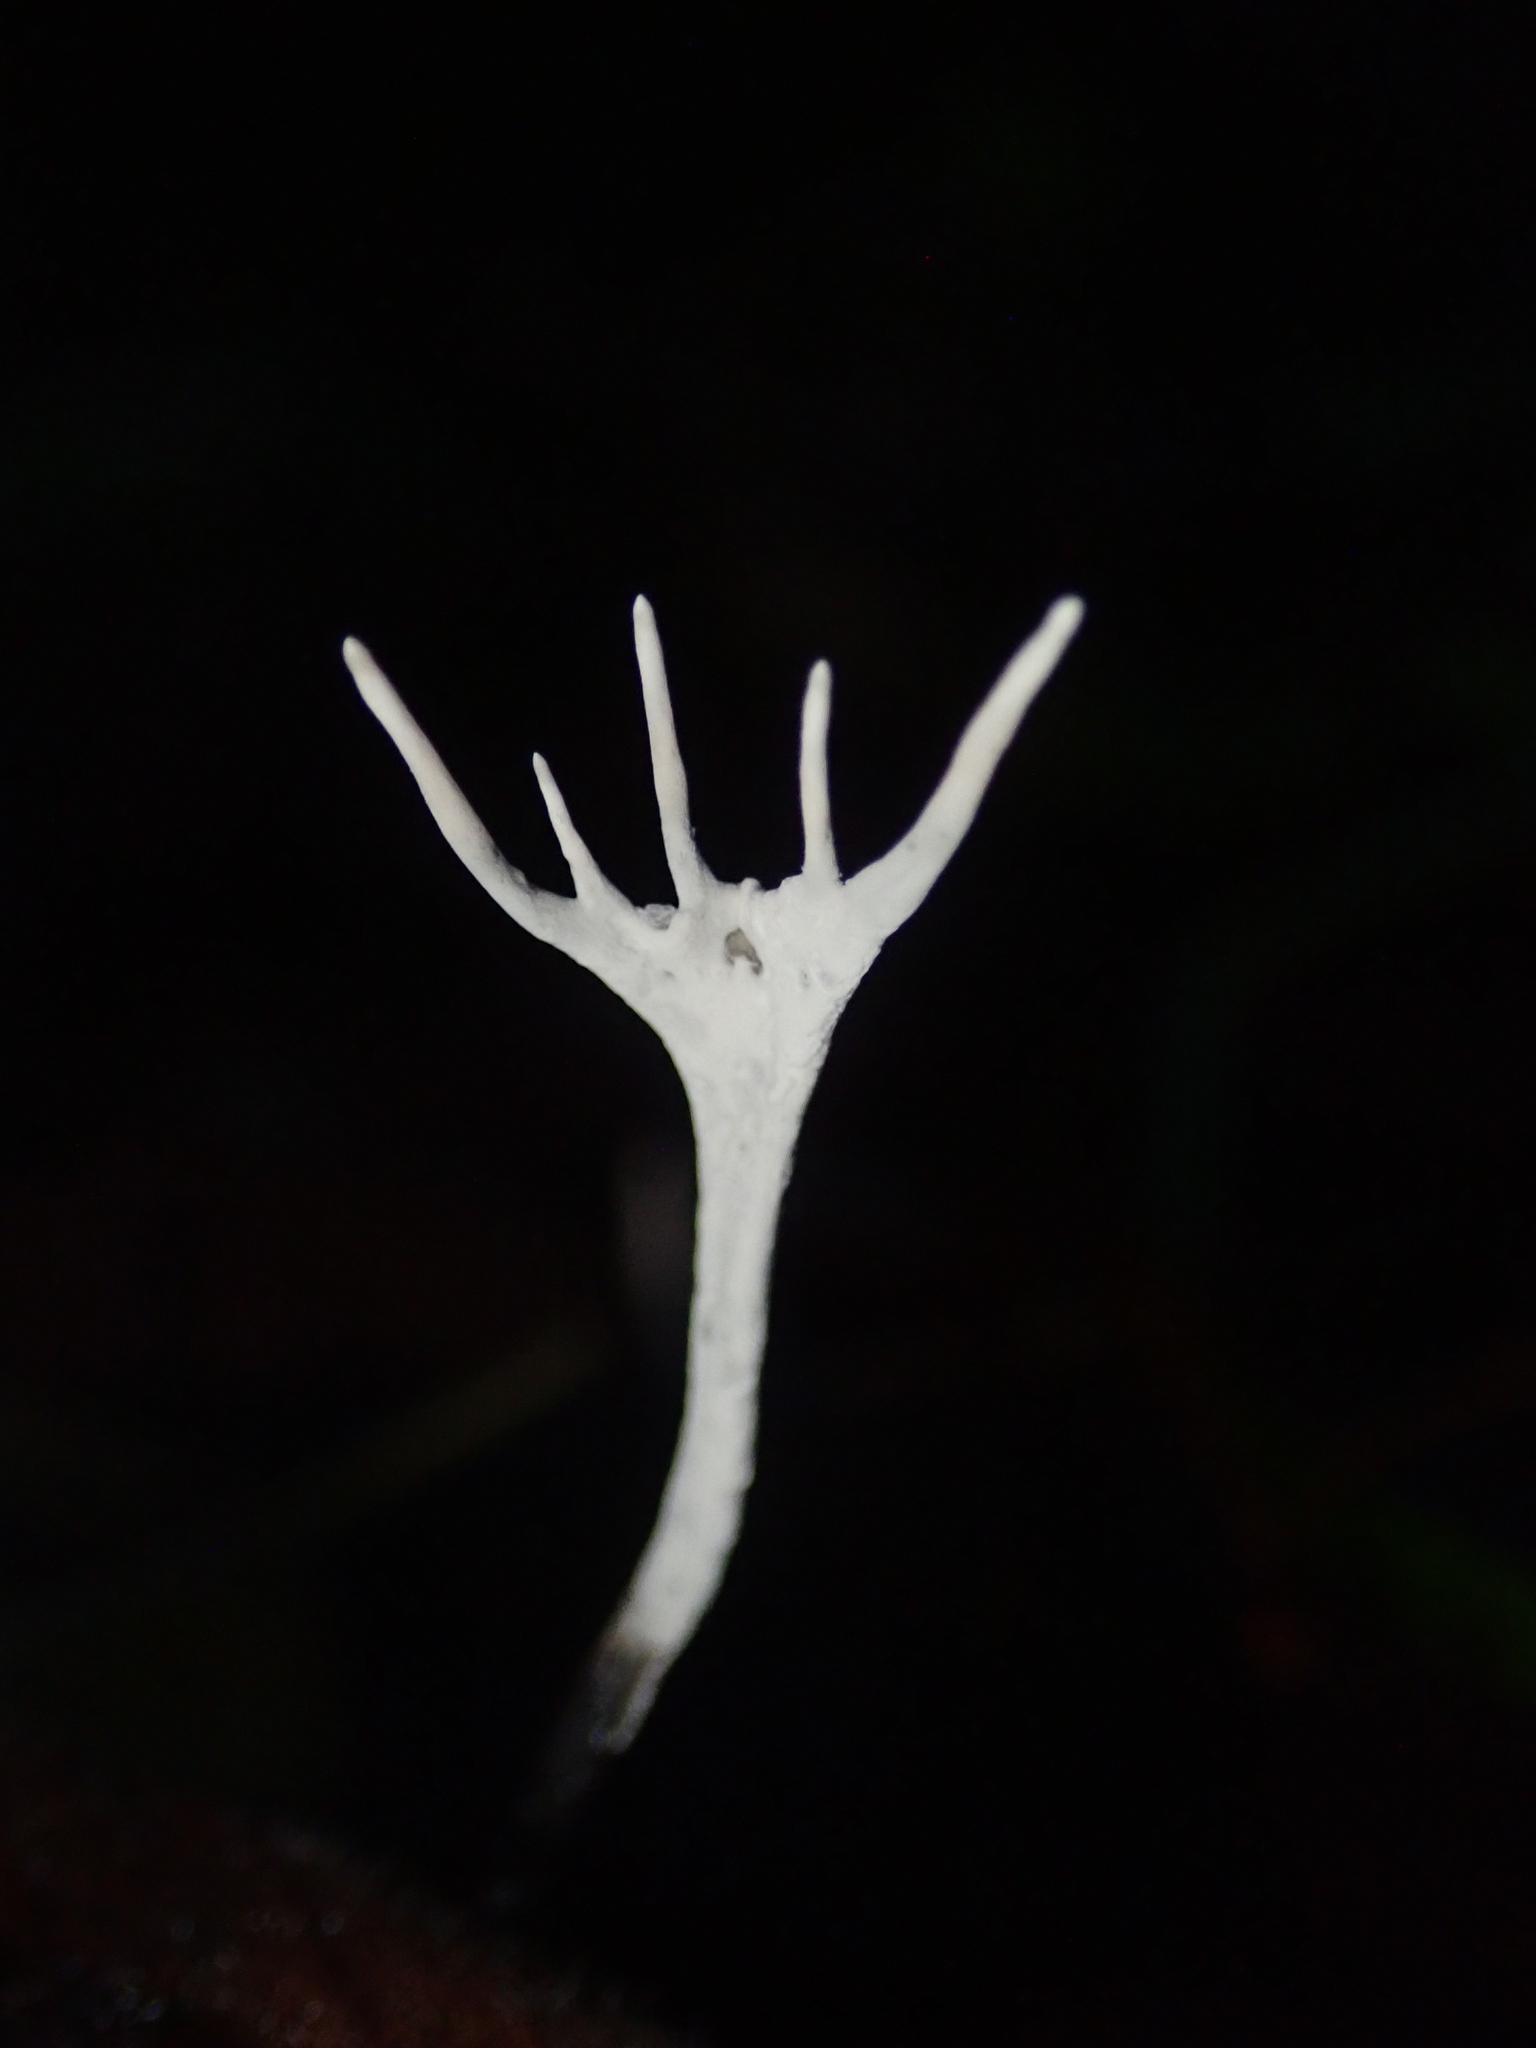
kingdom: Fungi
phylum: Ascomycota
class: Sordariomycetes
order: Xylariales
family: Xylariaceae
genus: Xylaria
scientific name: Xylaria hypoxylon
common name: Candle-snuff fungus
